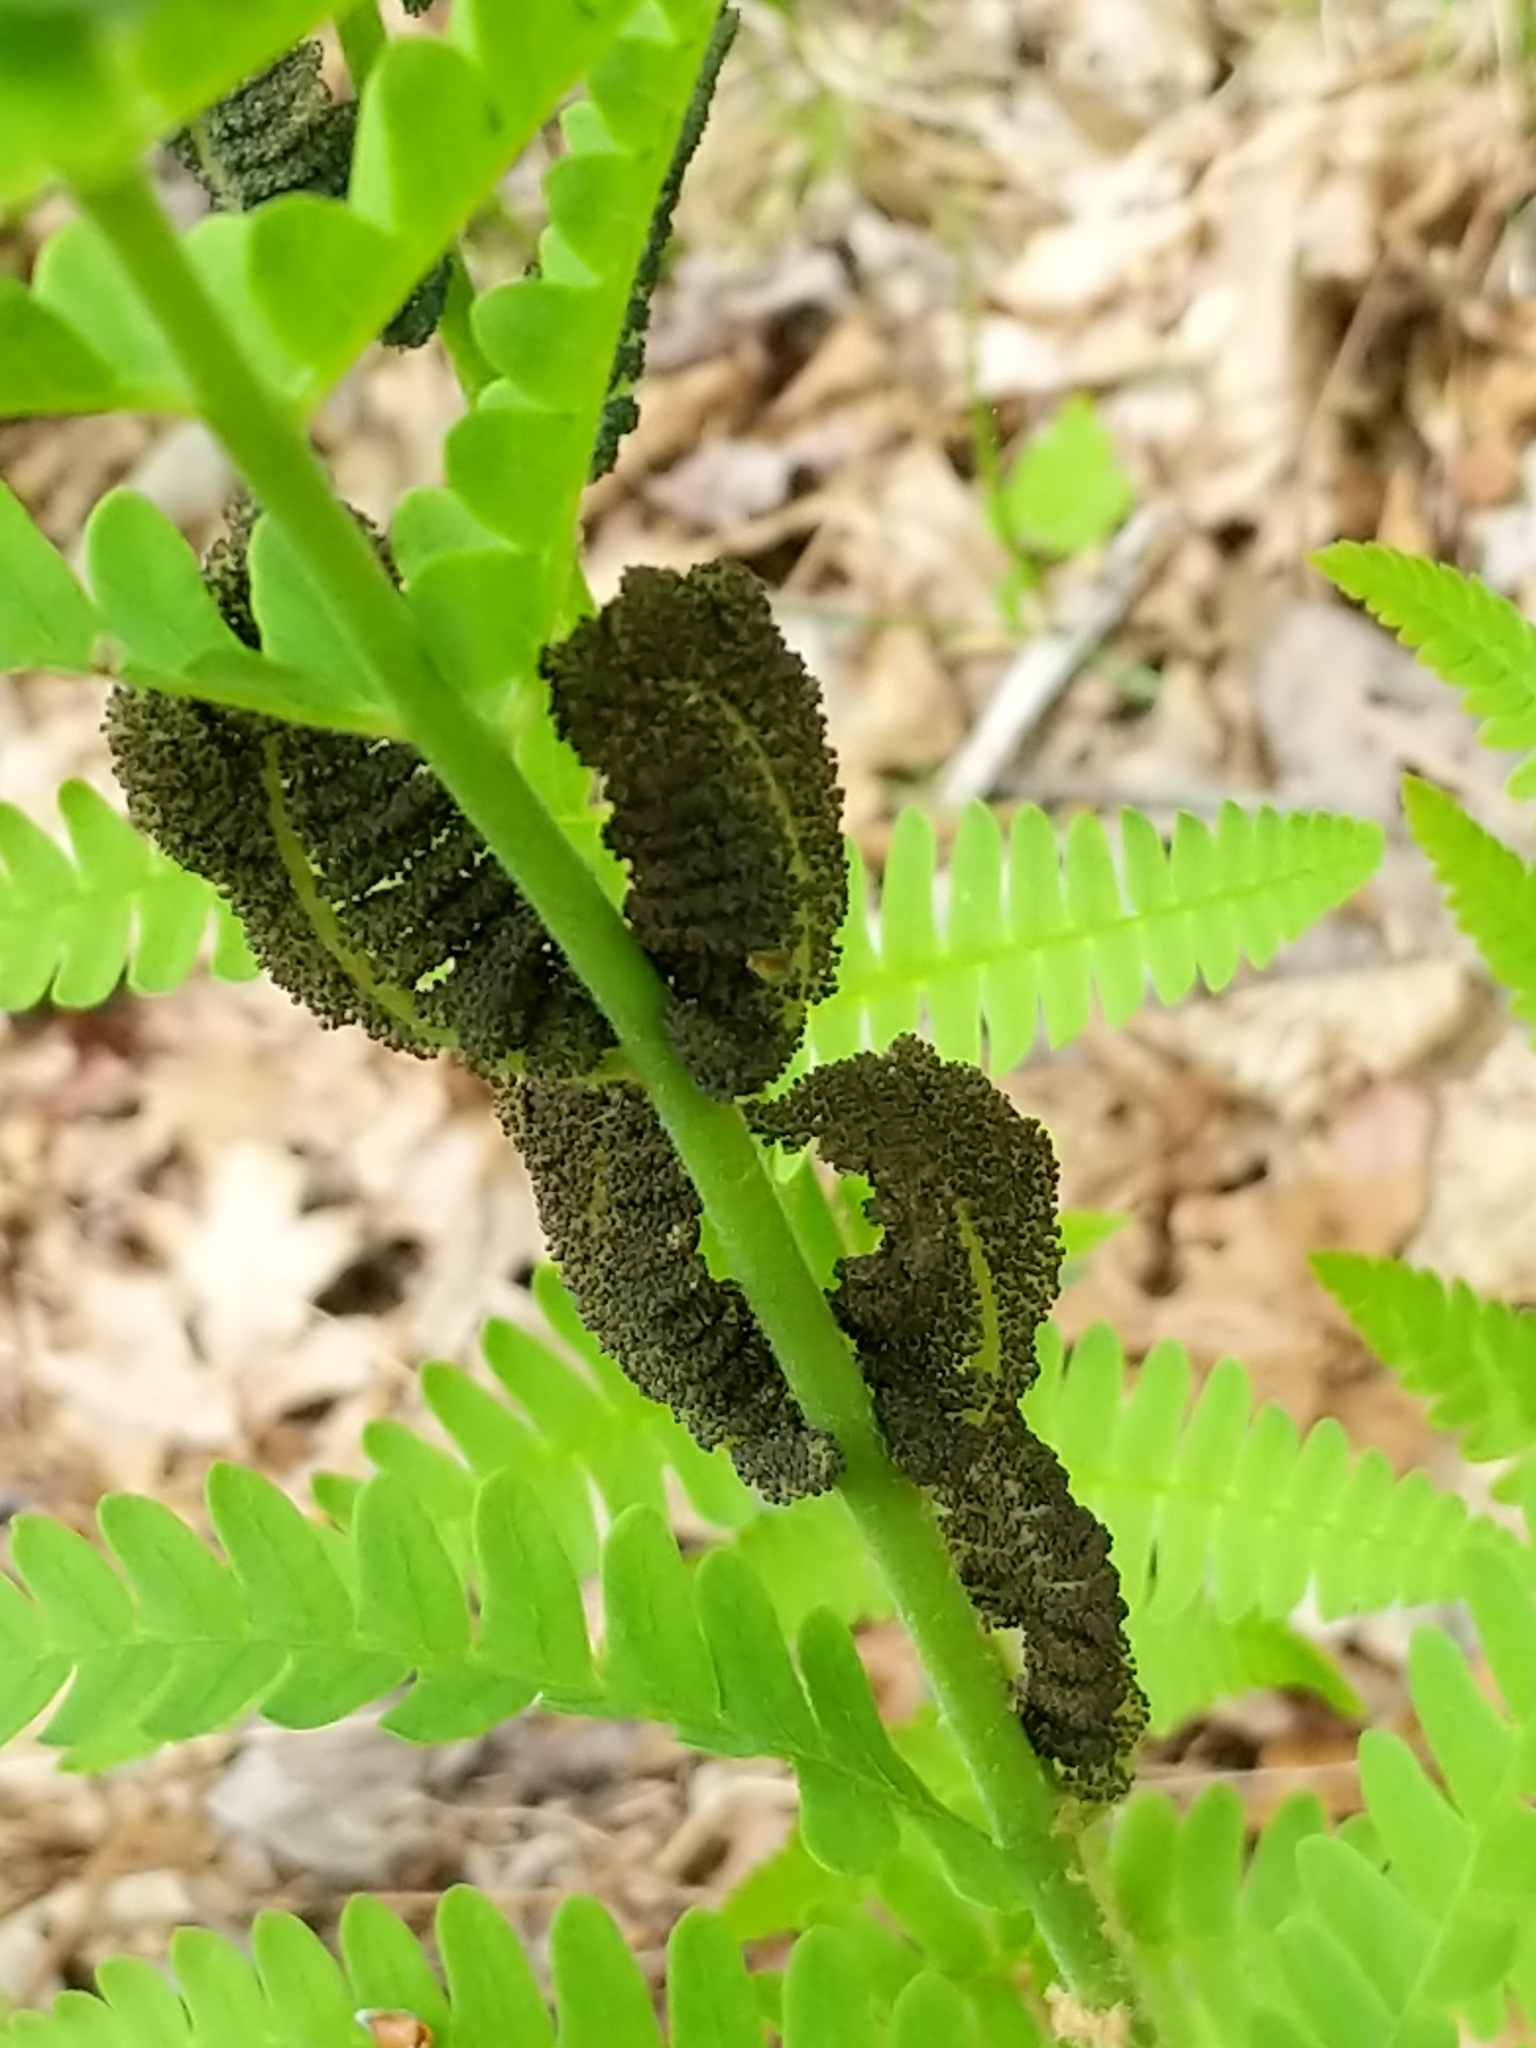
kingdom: Plantae
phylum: Tracheophyta
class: Polypodiopsida
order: Osmundales
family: Osmundaceae
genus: Claytosmunda
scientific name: Claytosmunda claytoniana
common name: Clayton's fern
